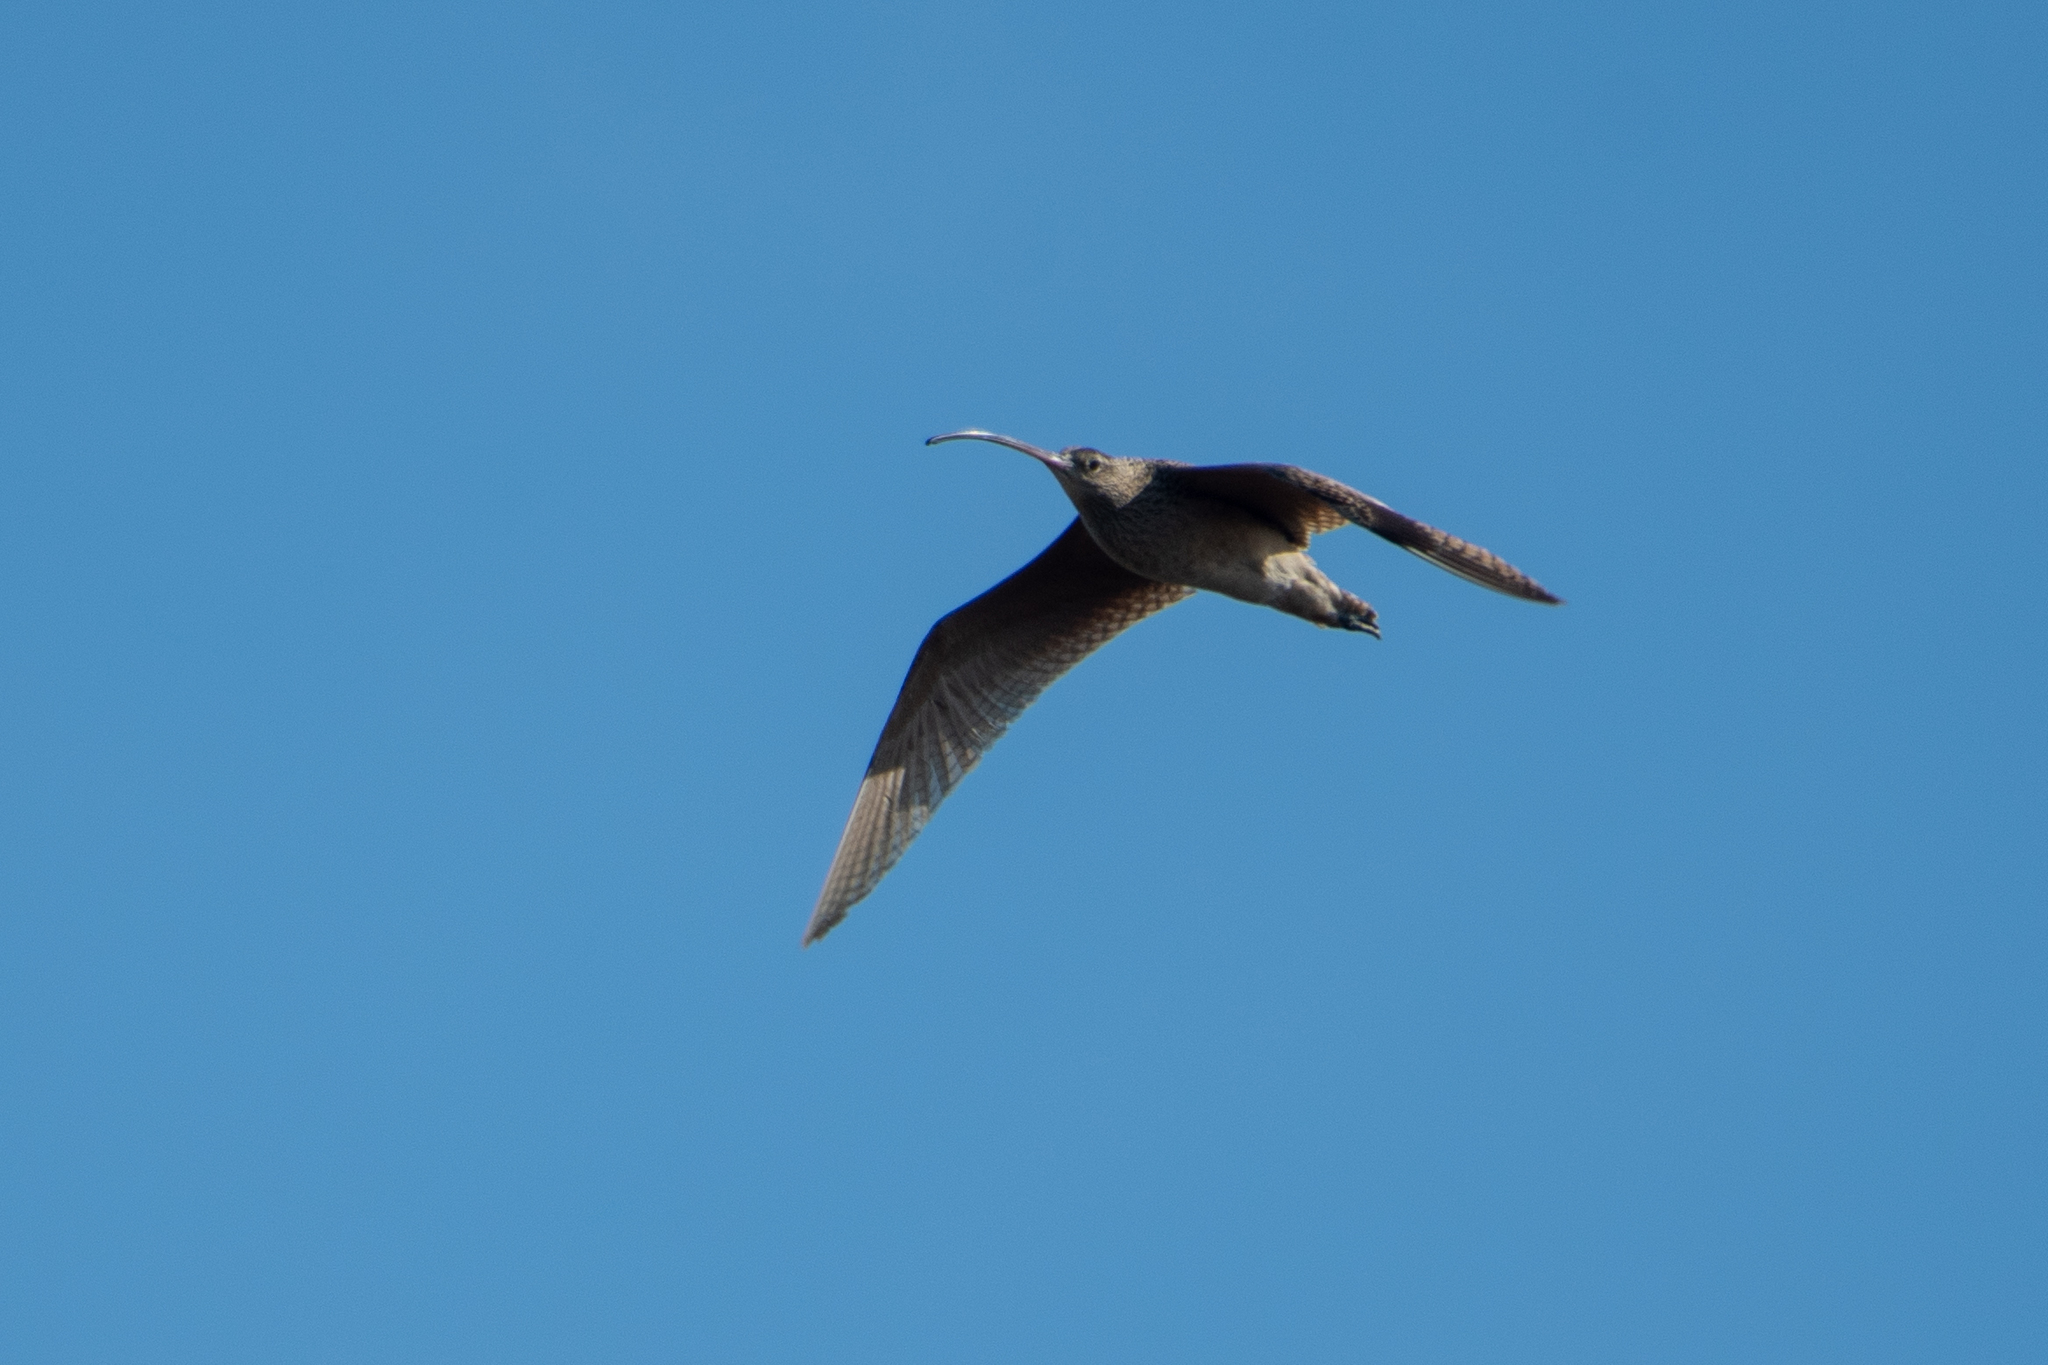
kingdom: Animalia
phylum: Chordata
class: Aves
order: Charadriiformes
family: Scolopacidae
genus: Numenius
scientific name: Numenius americanus
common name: Long-billed curlew
